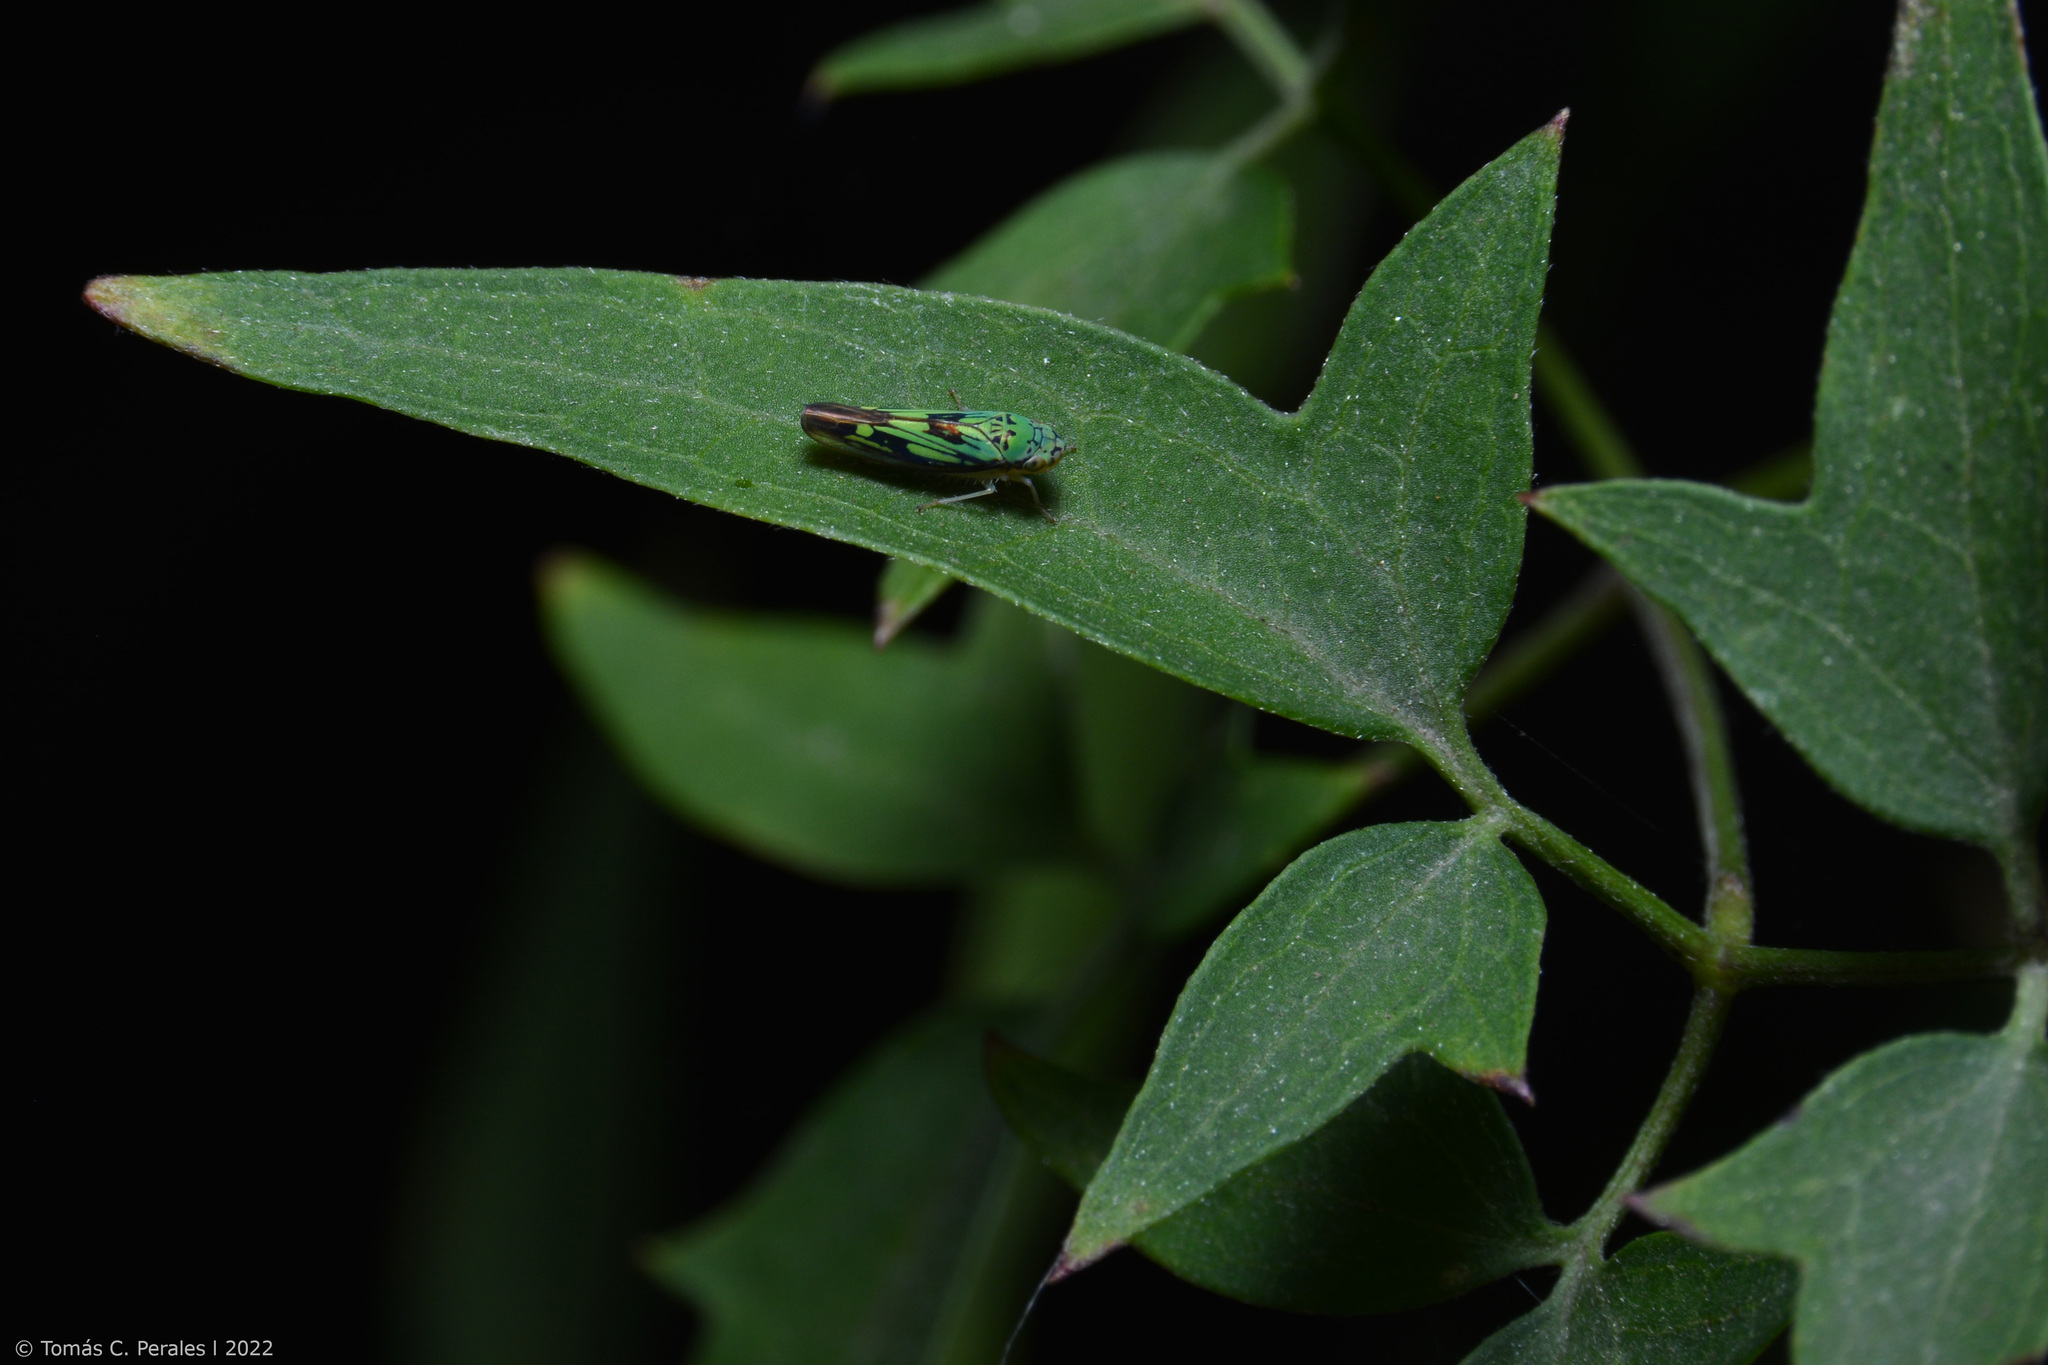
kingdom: Animalia
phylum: Arthropoda
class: Insecta
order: Hemiptera
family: Cicadellidae
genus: Scopogonalia
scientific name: Scopogonalia penicula
